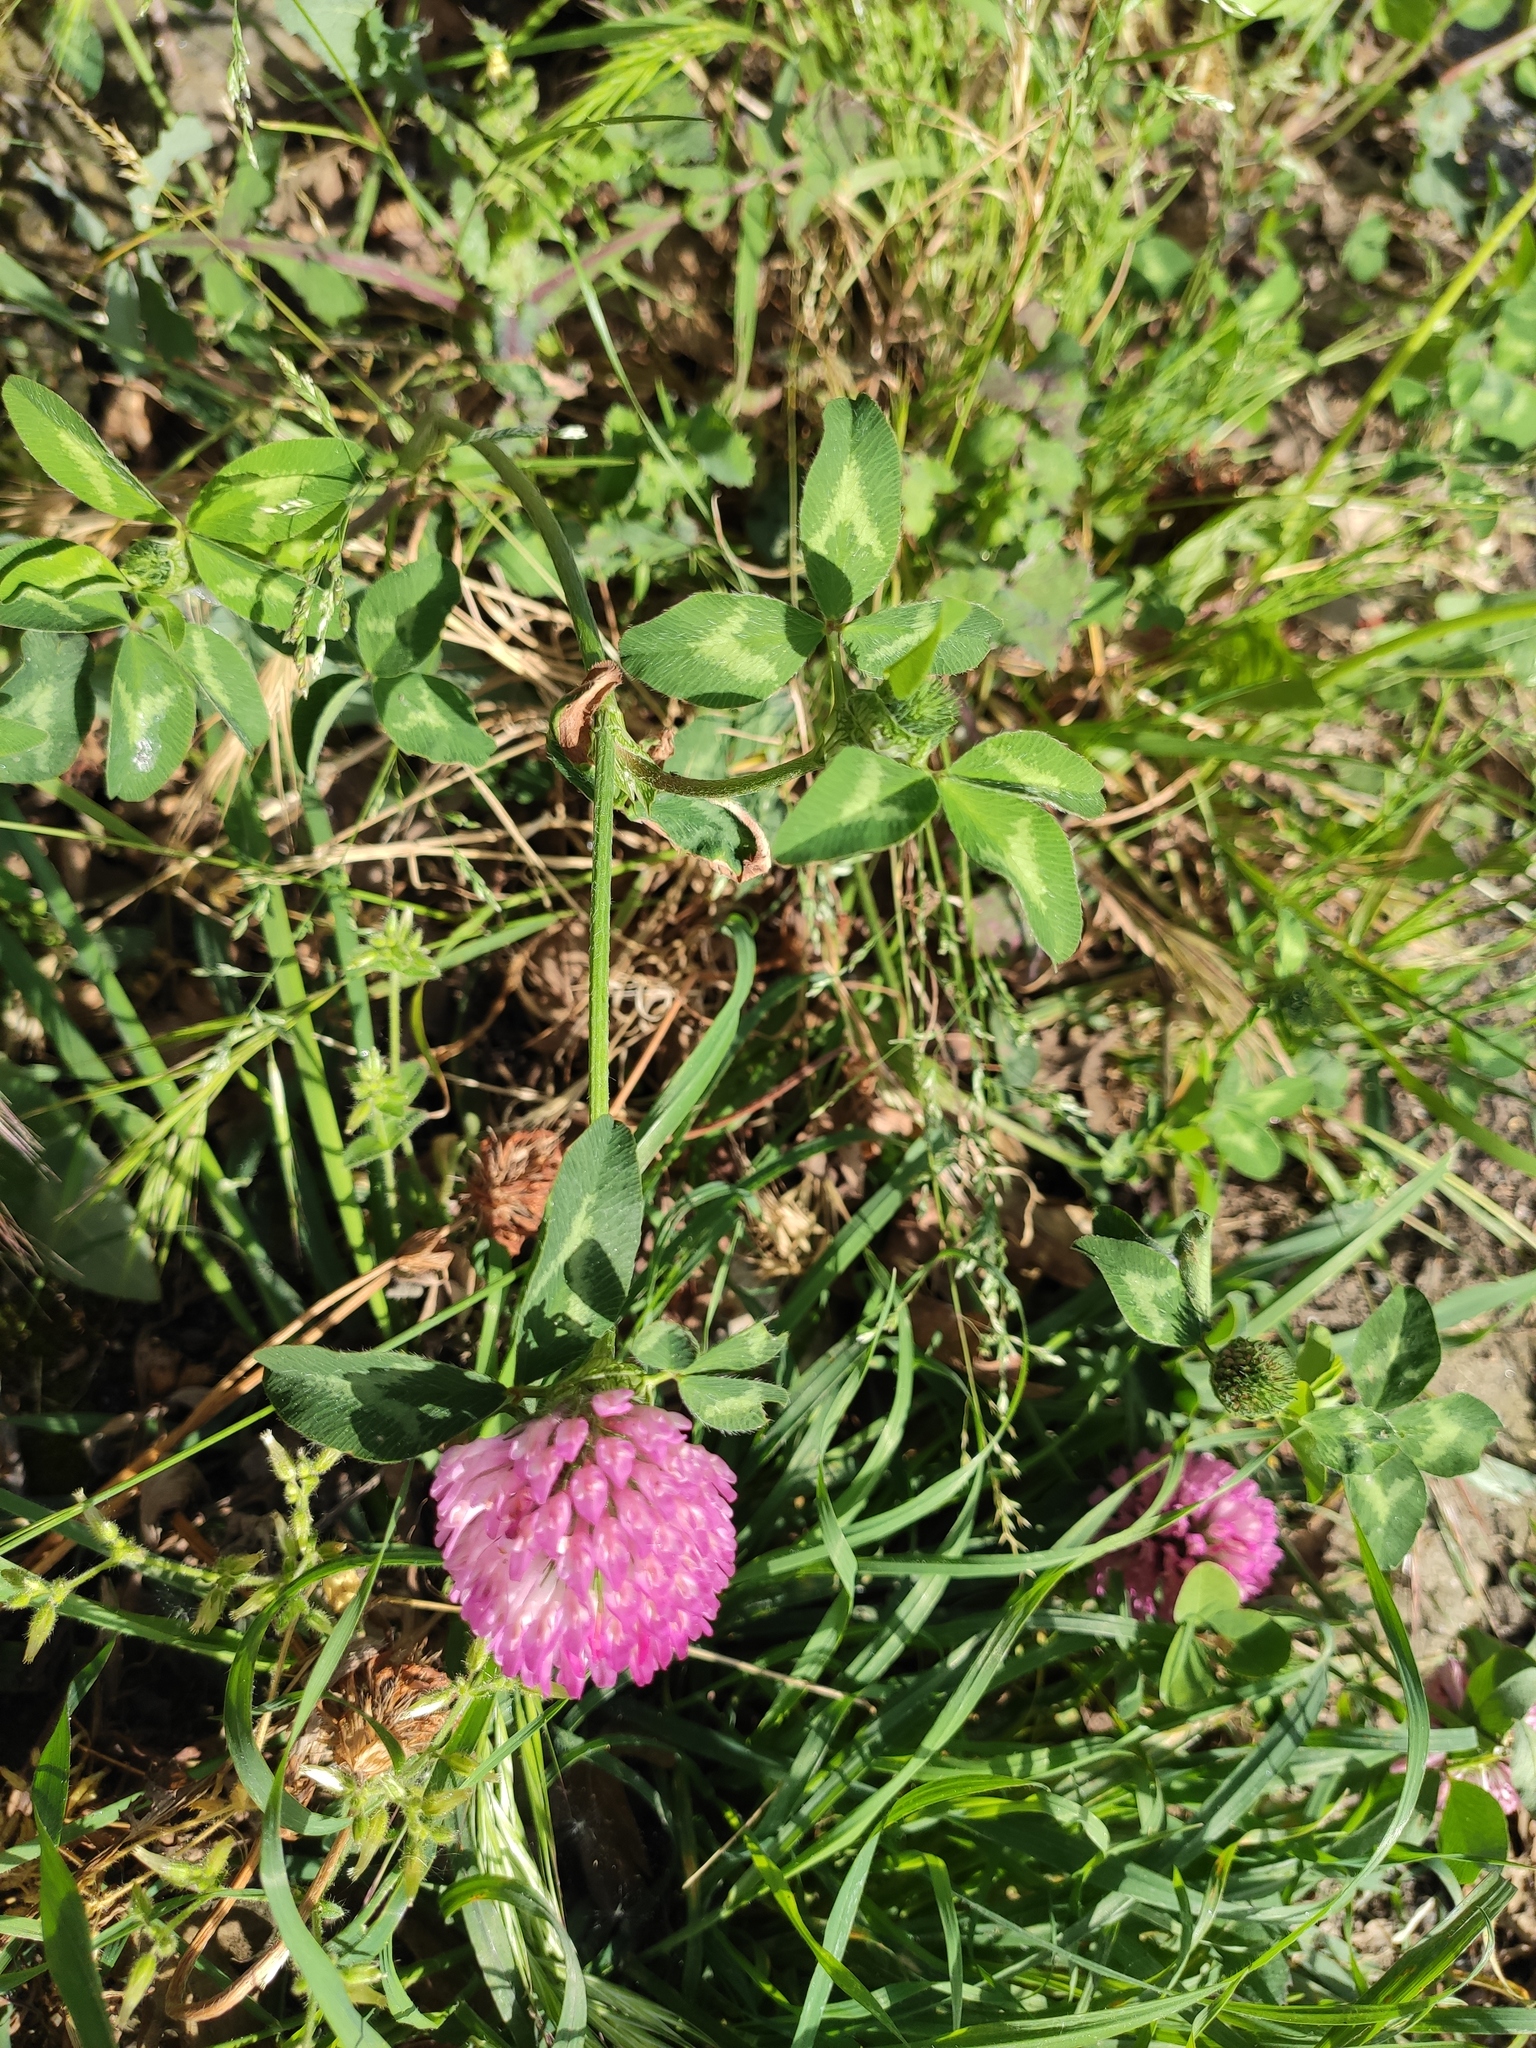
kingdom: Plantae
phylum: Tracheophyta
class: Magnoliopsida
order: Fabales
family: Fabaceae
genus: Trifolium
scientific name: Trifolium pratense
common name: Red clover
